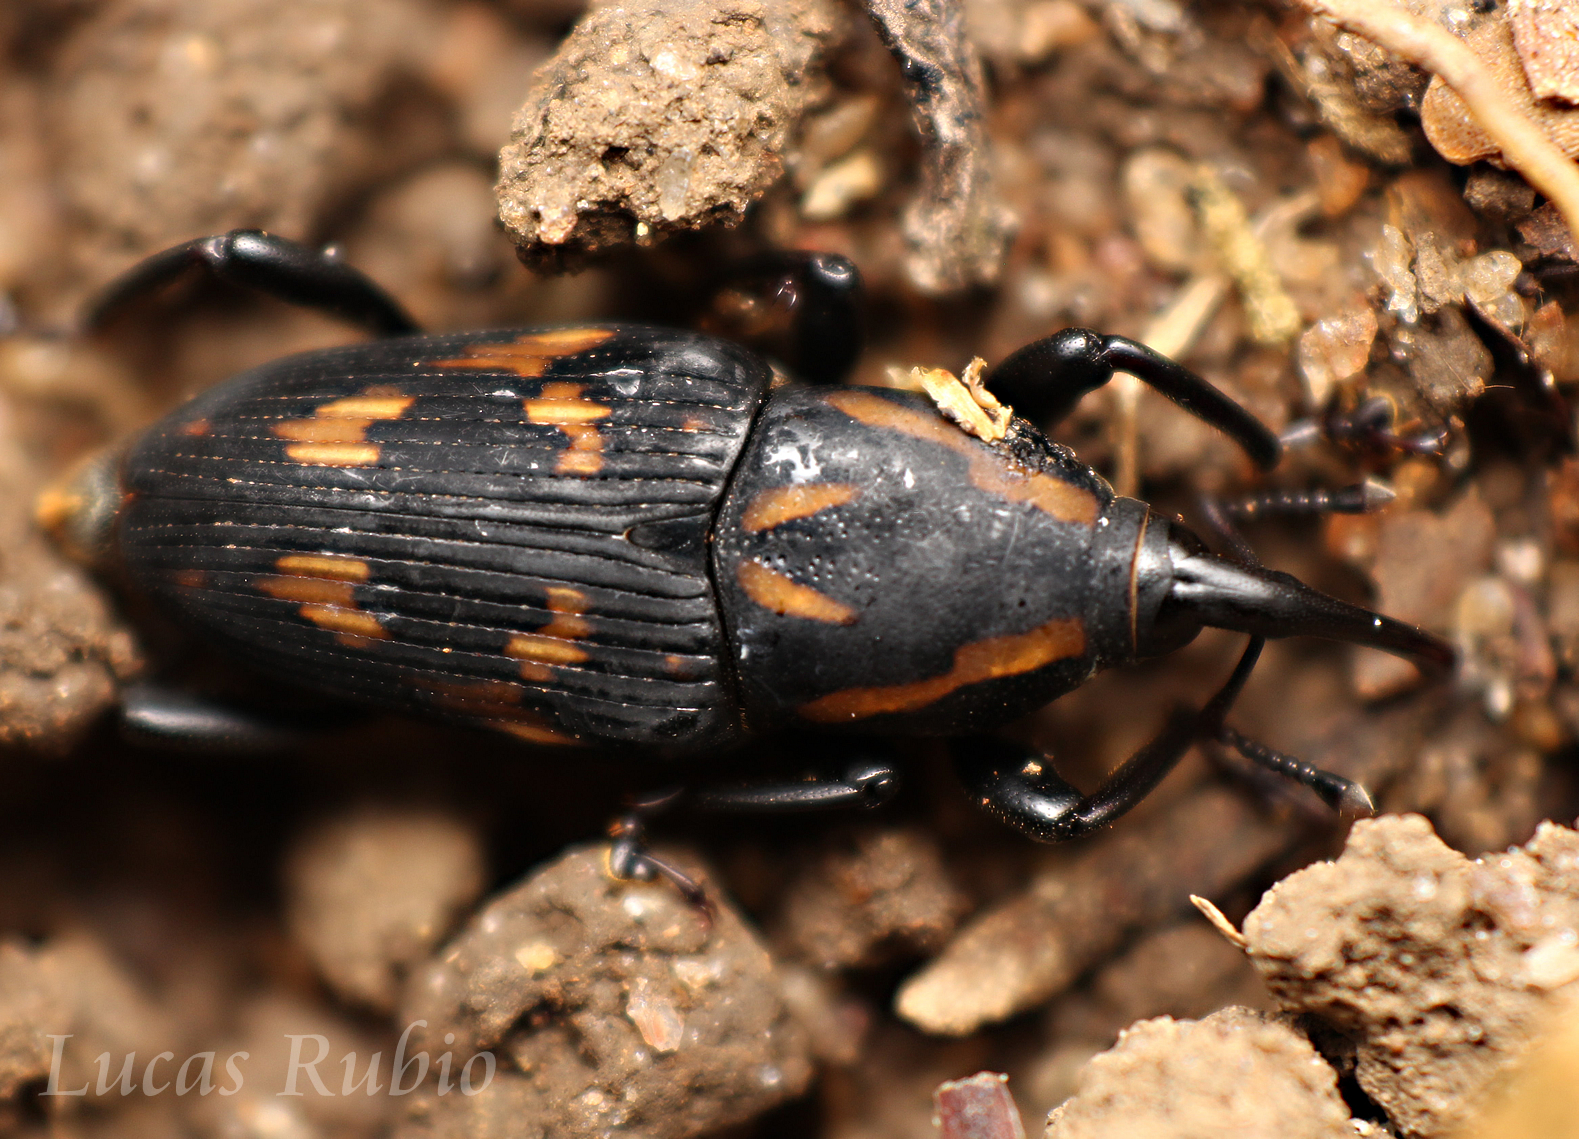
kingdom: Animalia
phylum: Arthropoda
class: Insecta
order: Coleoptera
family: Dryophthoridae
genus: Metamasius
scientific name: Metamasius ensirostris
